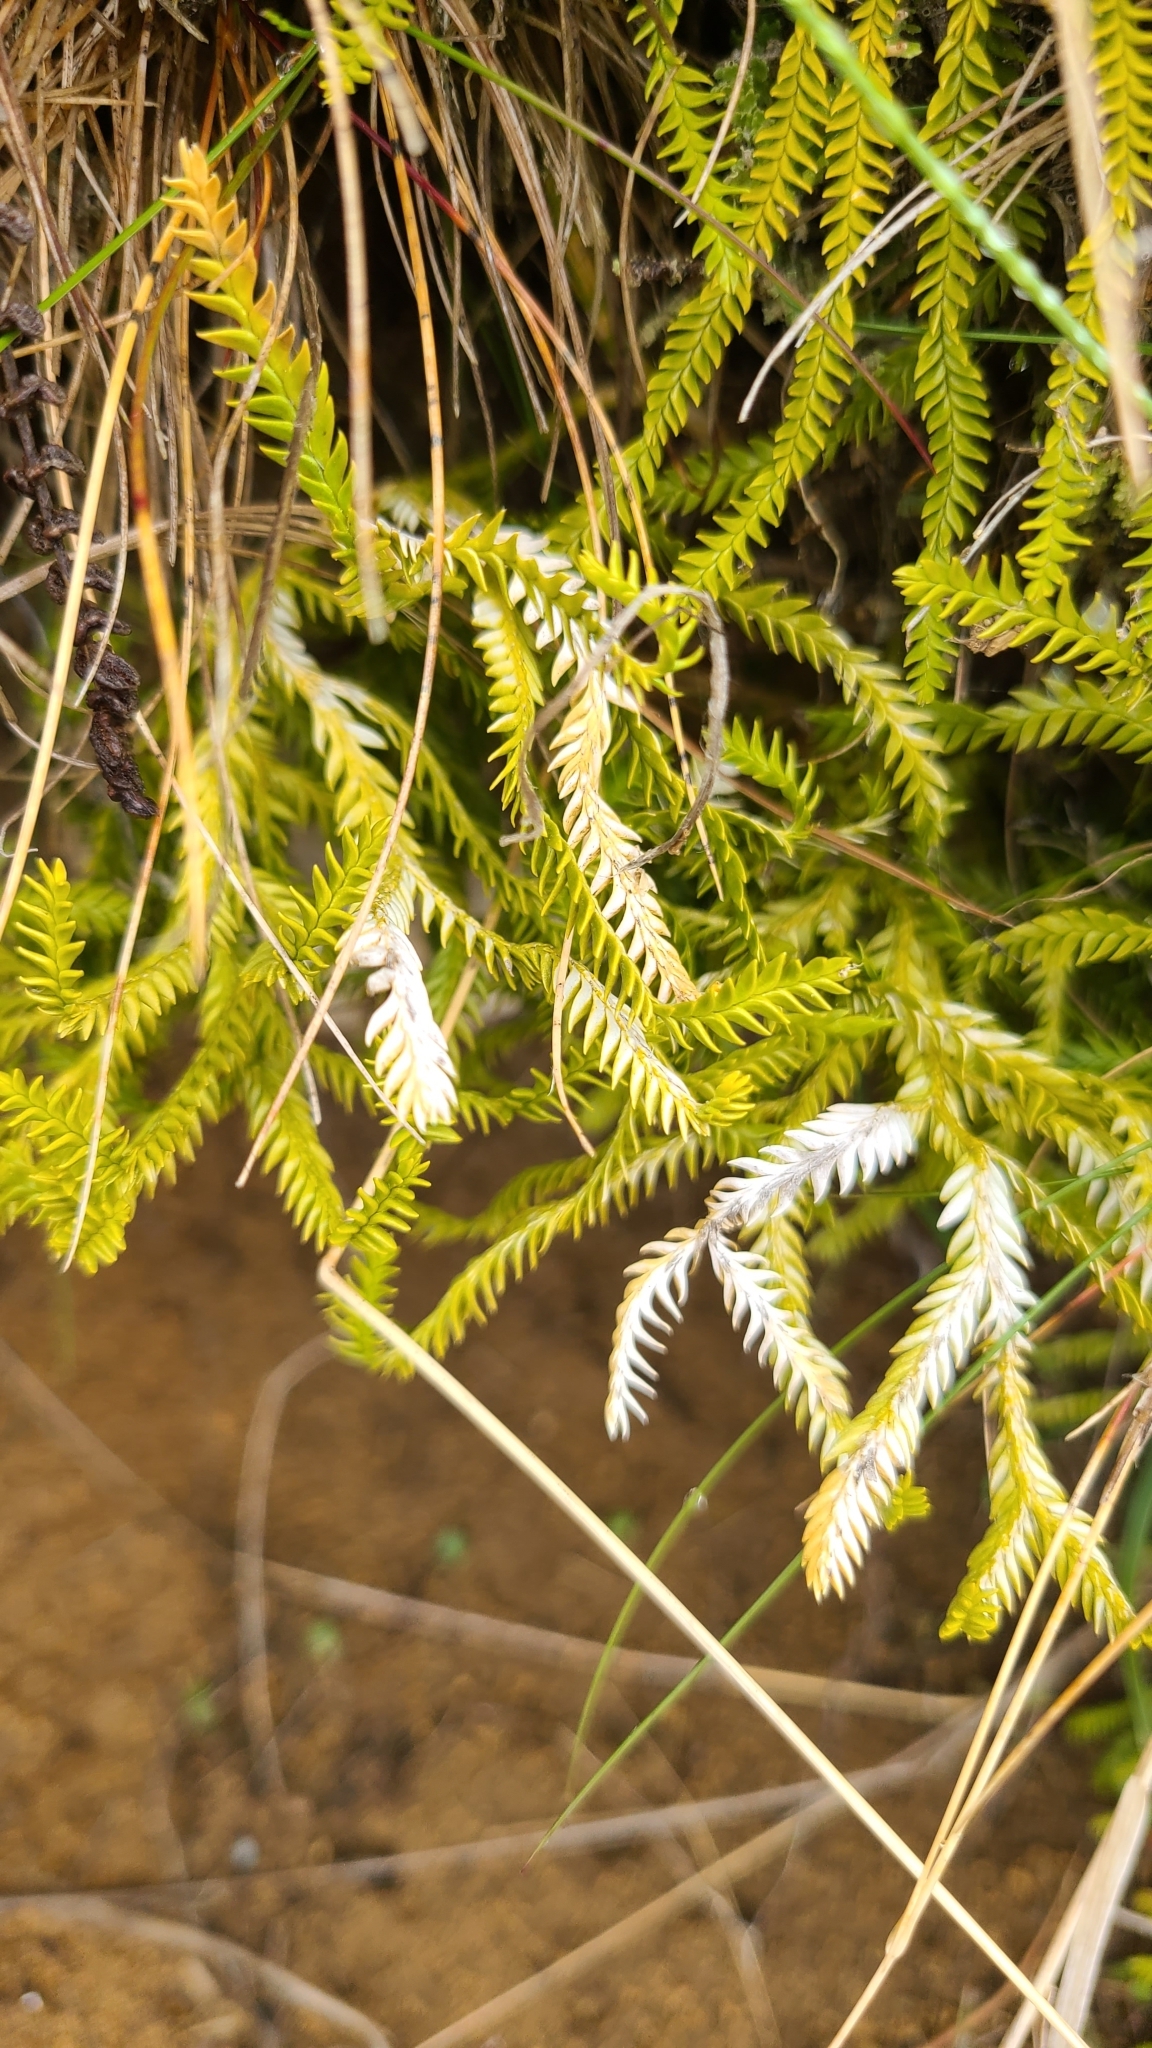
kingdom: Plantae
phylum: Tracheophyta
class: Lycopodiopsida
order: Lycopodiales
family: Lycopodiaceae
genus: Diphasium
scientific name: Diphasium scariosum
